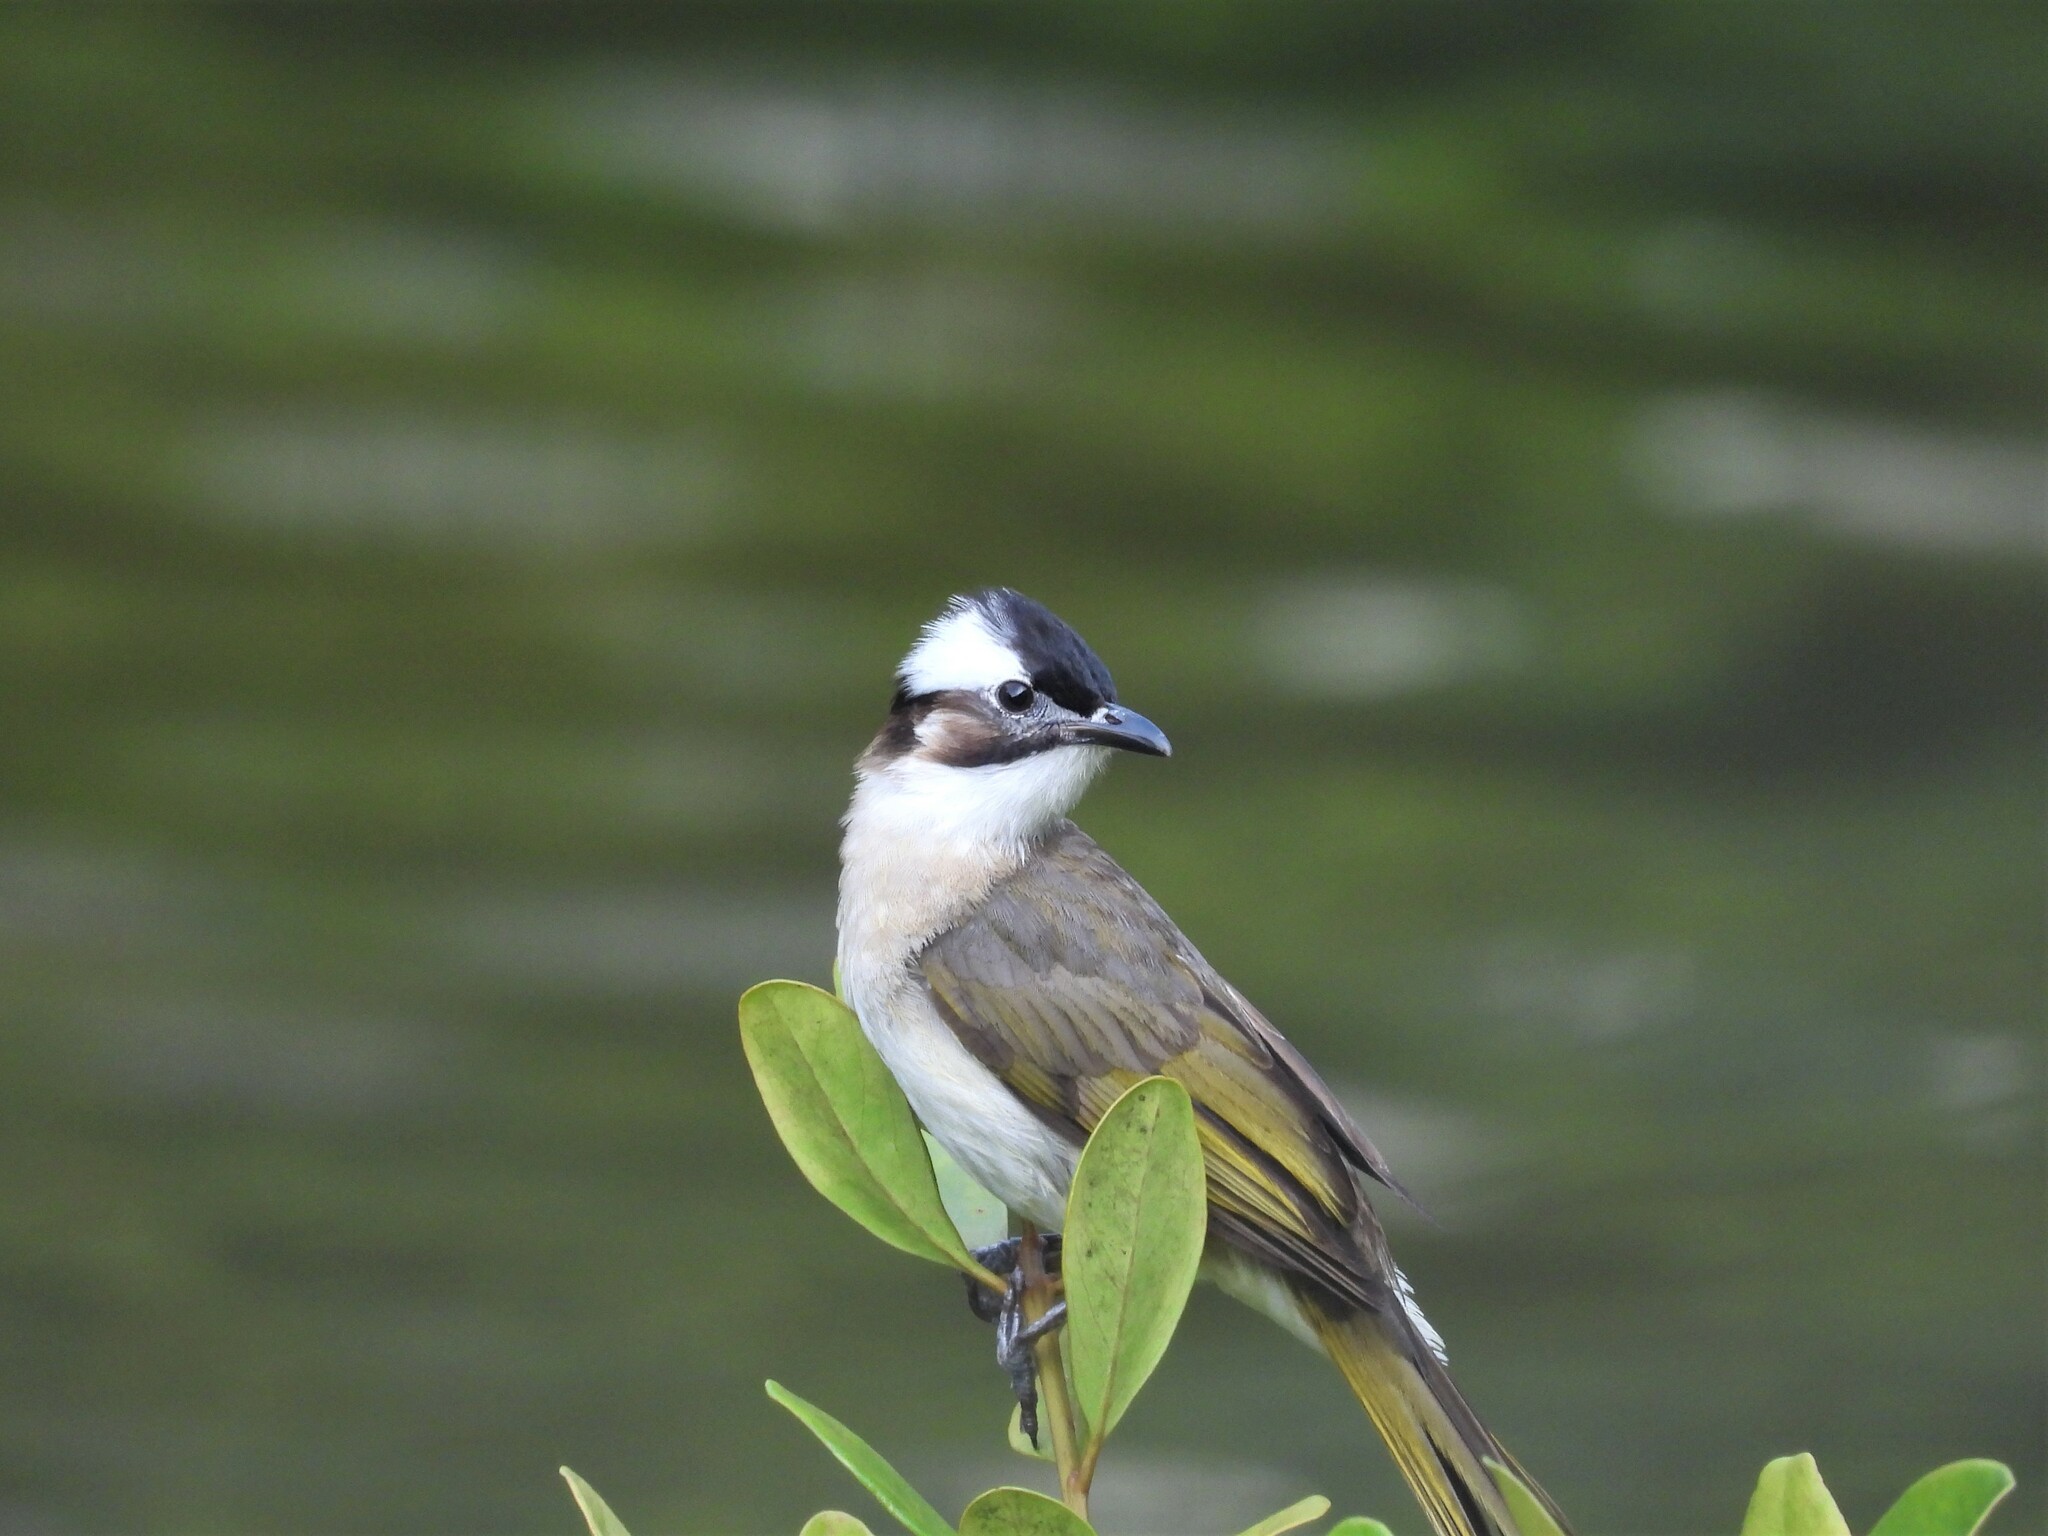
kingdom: Animalia
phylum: Chordata
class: Aves
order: Passeriformes
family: Pycnonotidae
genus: Pycnonotus
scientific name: Pycnonotus sinensis
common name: Light-vented bulbul
